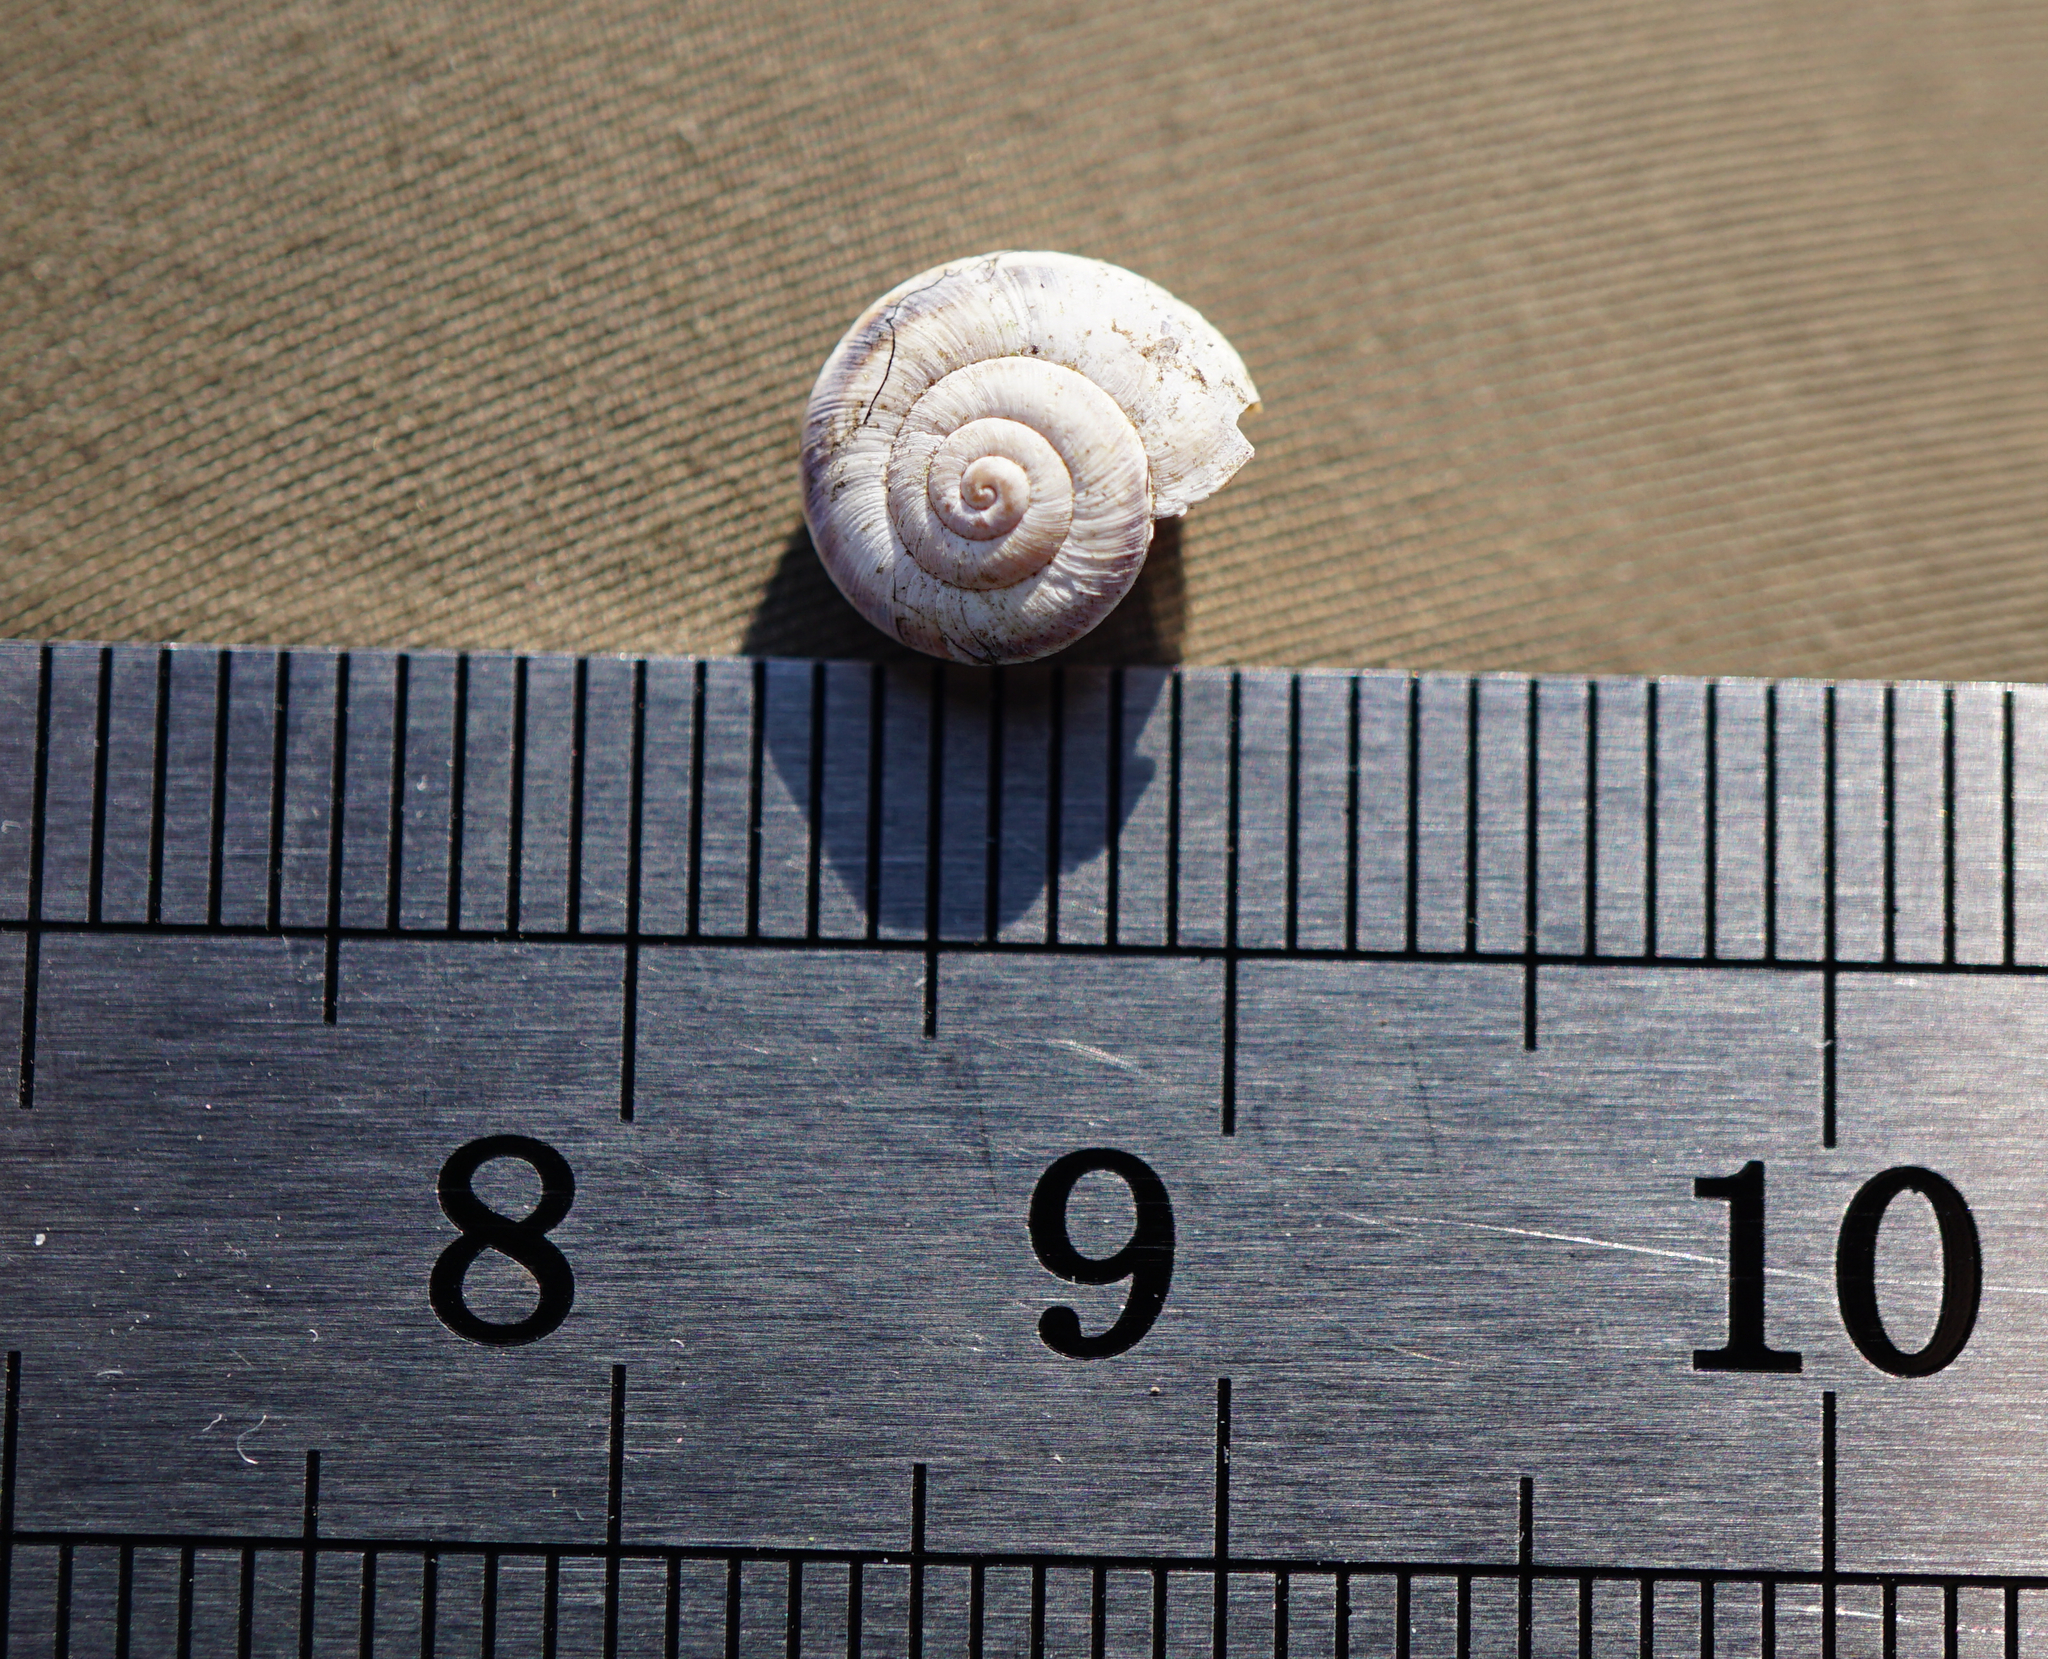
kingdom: Animalia
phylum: Mollusca
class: Gastropoda
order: Stylommatophora
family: Geomitridae
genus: Xerolenta
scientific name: Xerolenta obvia
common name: White heath snail
